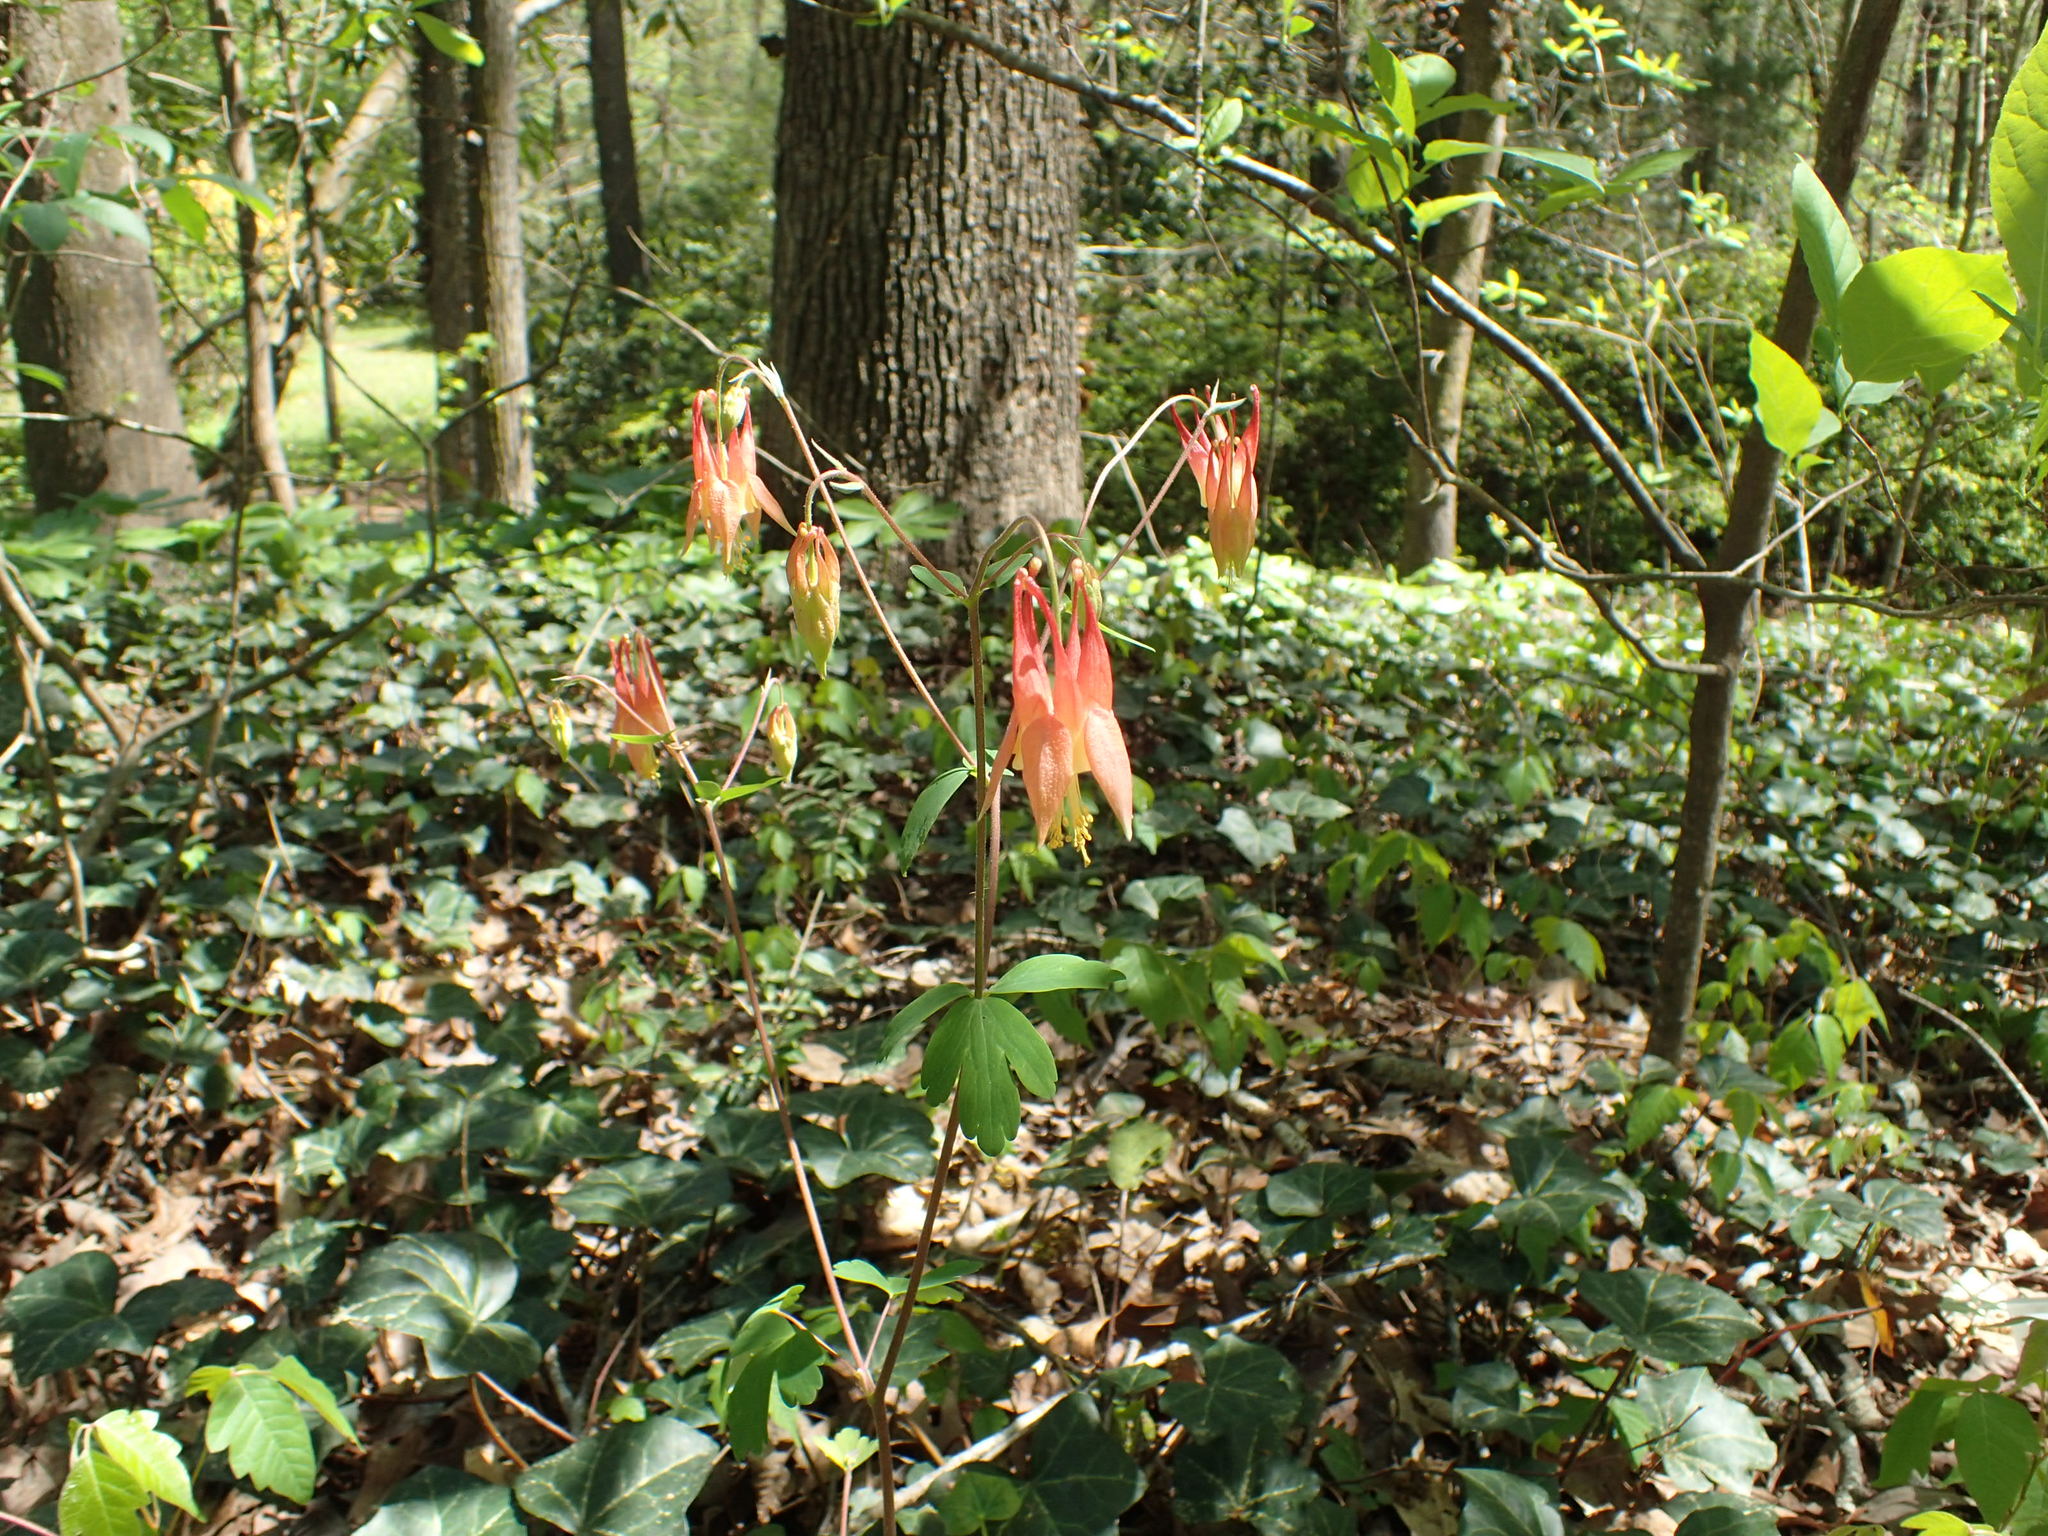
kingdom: Plantae
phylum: Tracheophyta
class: Magnoliopsida
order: Ranunculales
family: Ranunculaceae
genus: Aquilegia
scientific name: Aquilegia canadensis
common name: American columbine
